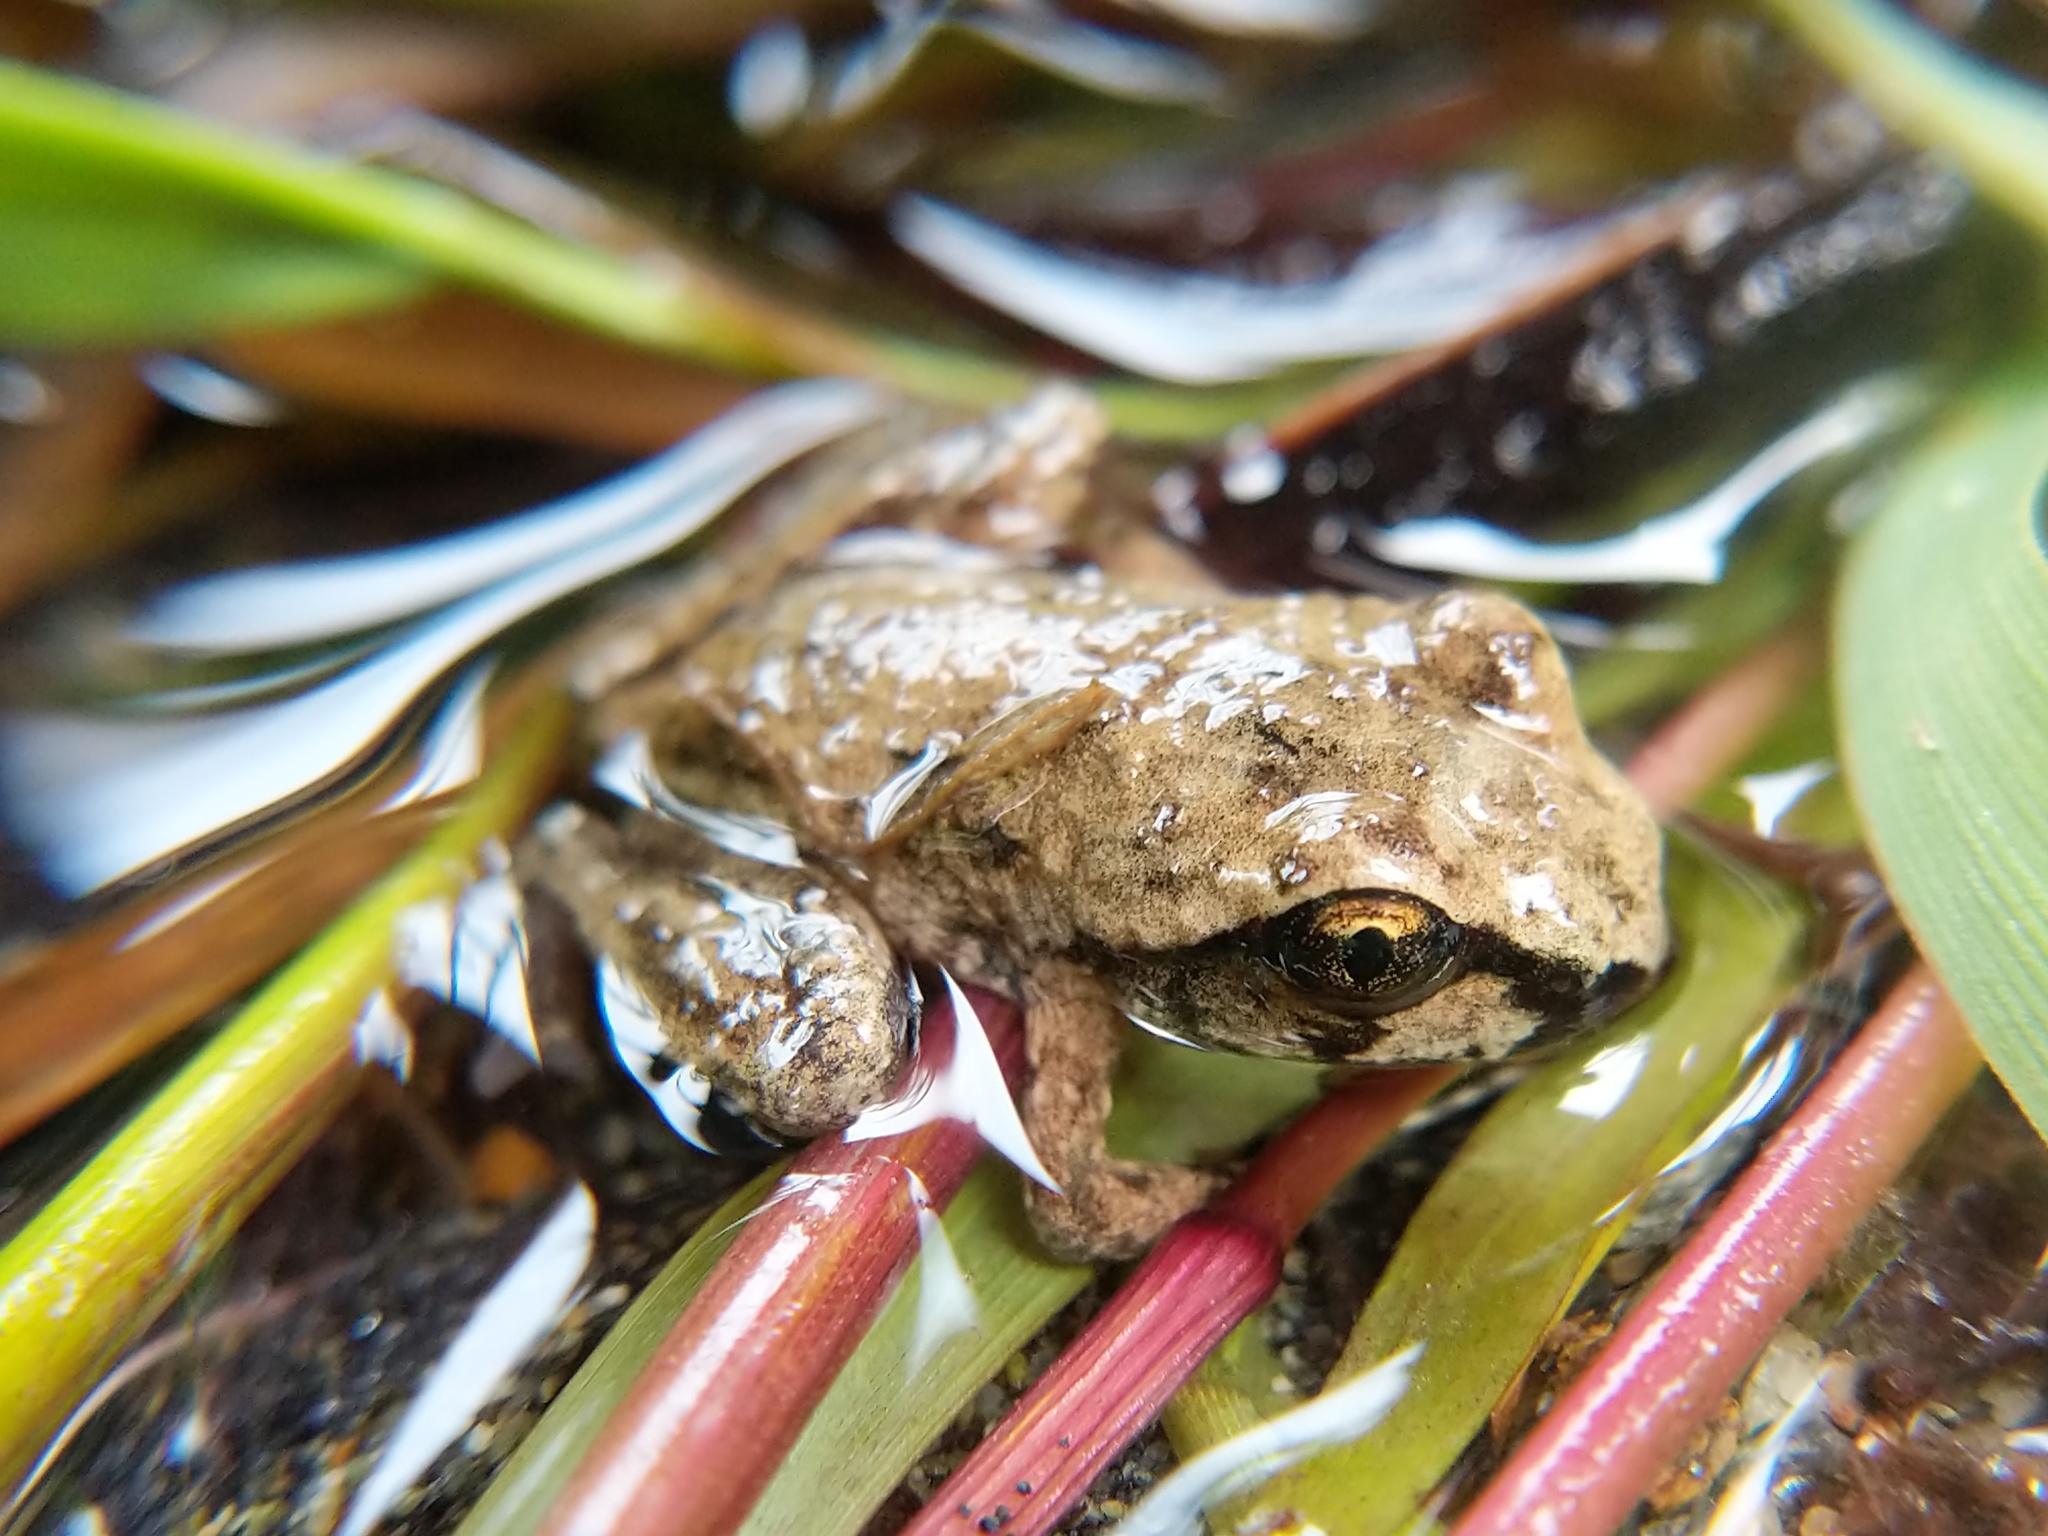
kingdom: Animalia
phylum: Chordata
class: Amphibia
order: Anura
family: Ascaphidae
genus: Ascaphus
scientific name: Ascaphus truei
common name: Tailed frog
